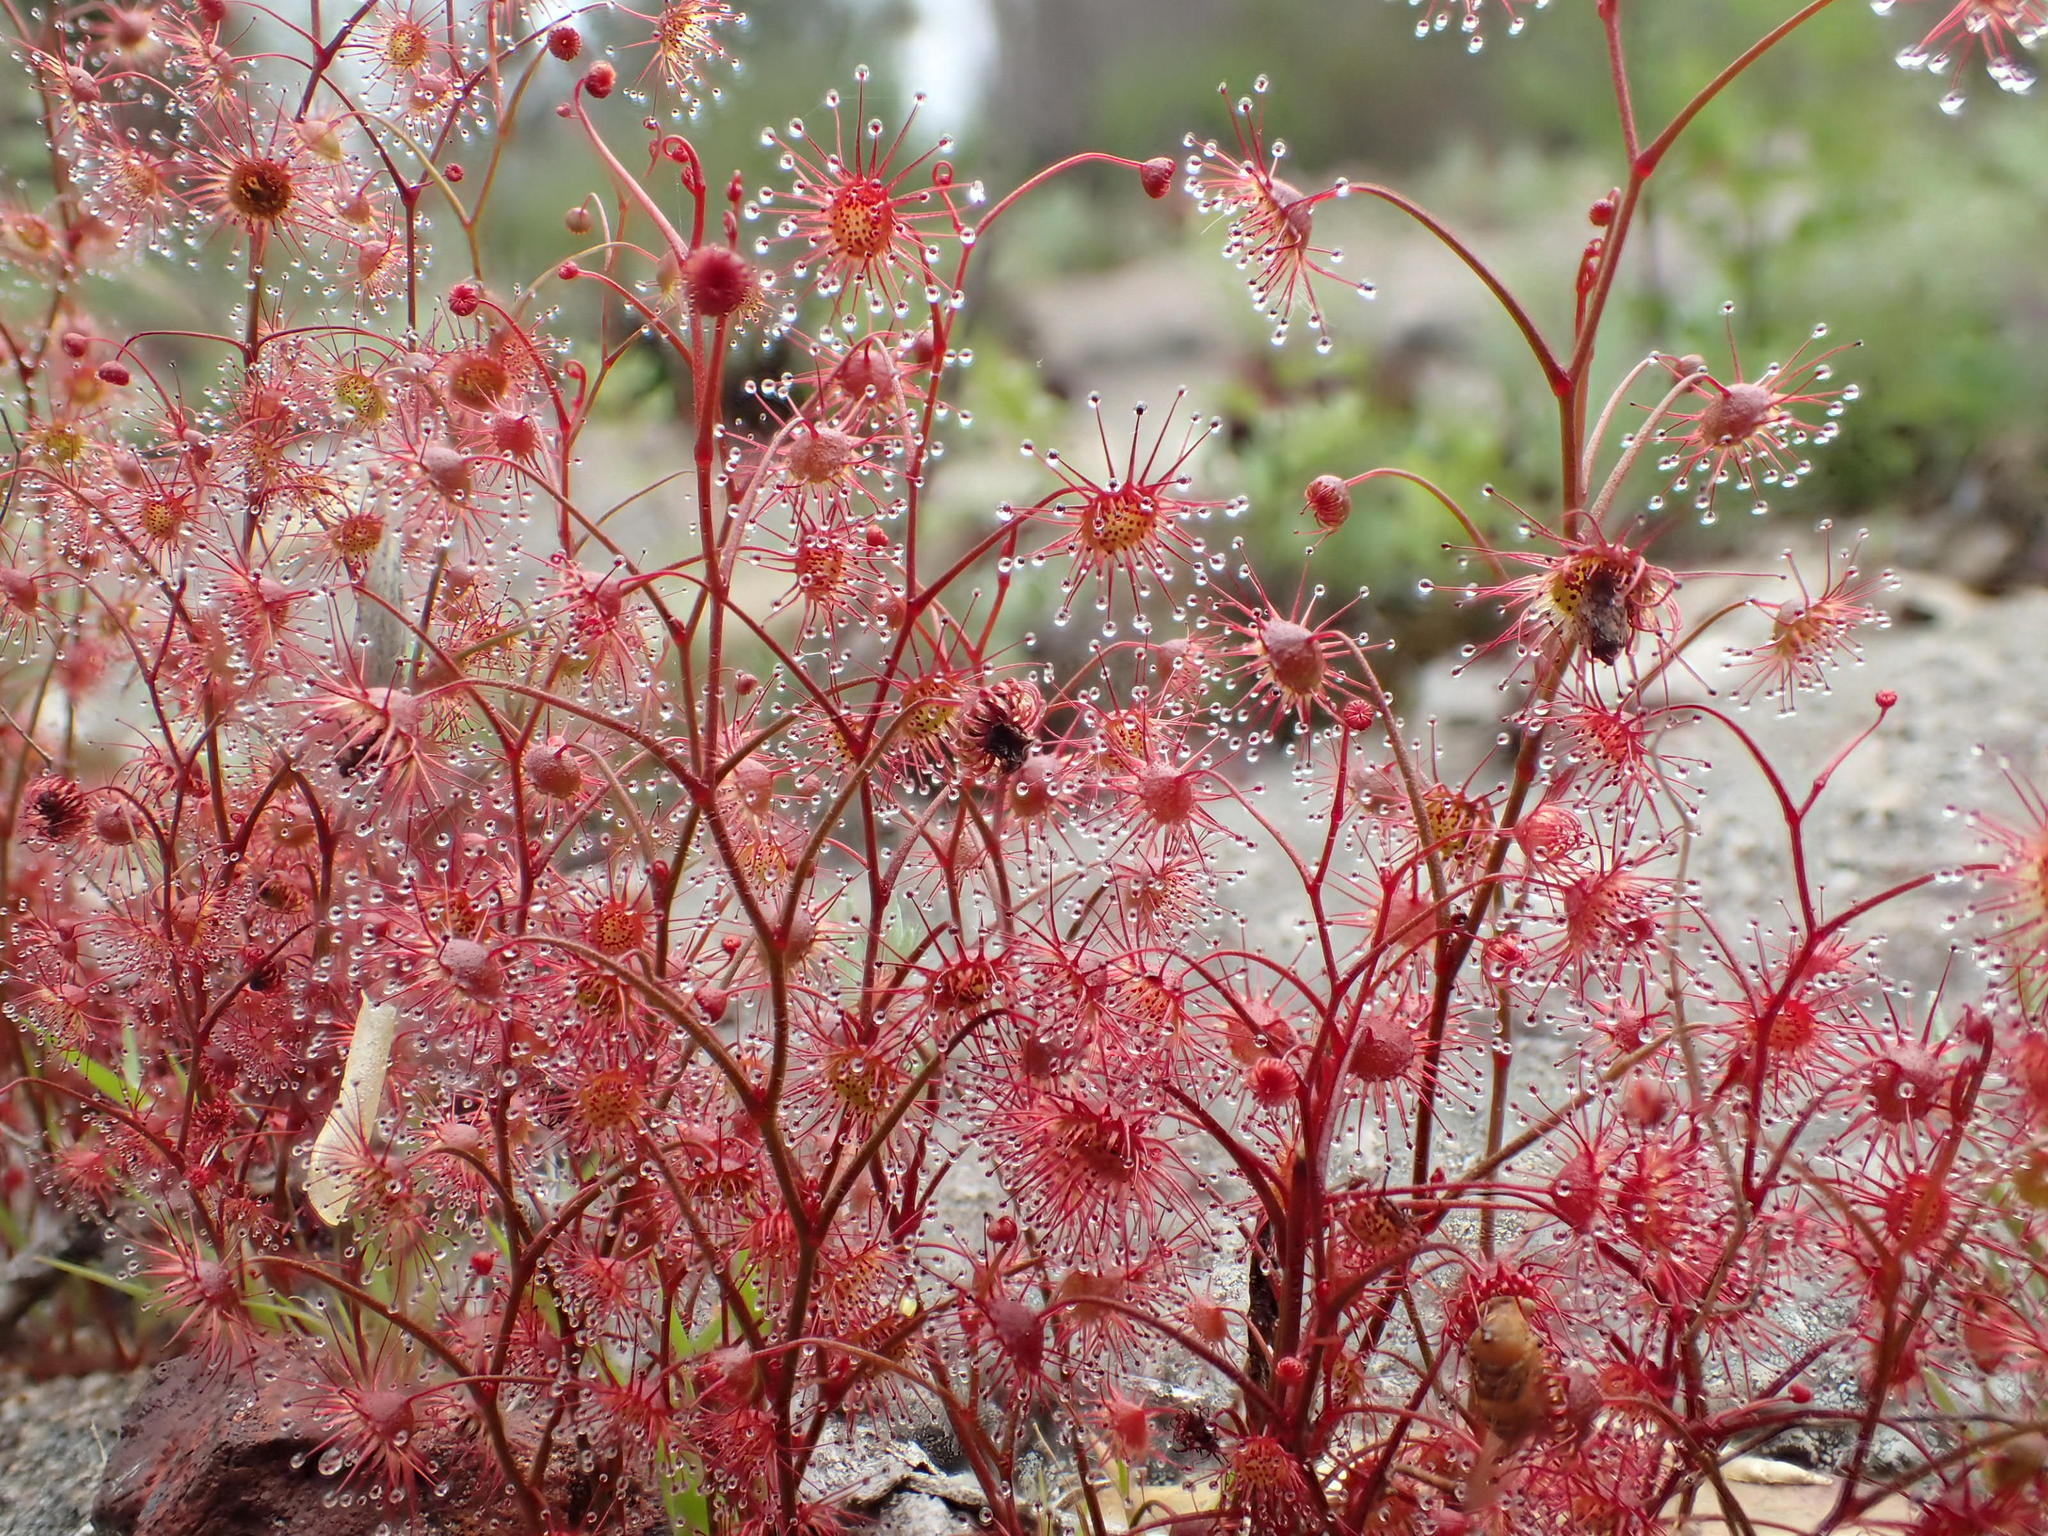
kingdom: Plantae
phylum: Tracheophyta
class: Magnoliopsida
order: Caryophyllales
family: Droseraceae
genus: Drosera
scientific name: Drosera menziesii
